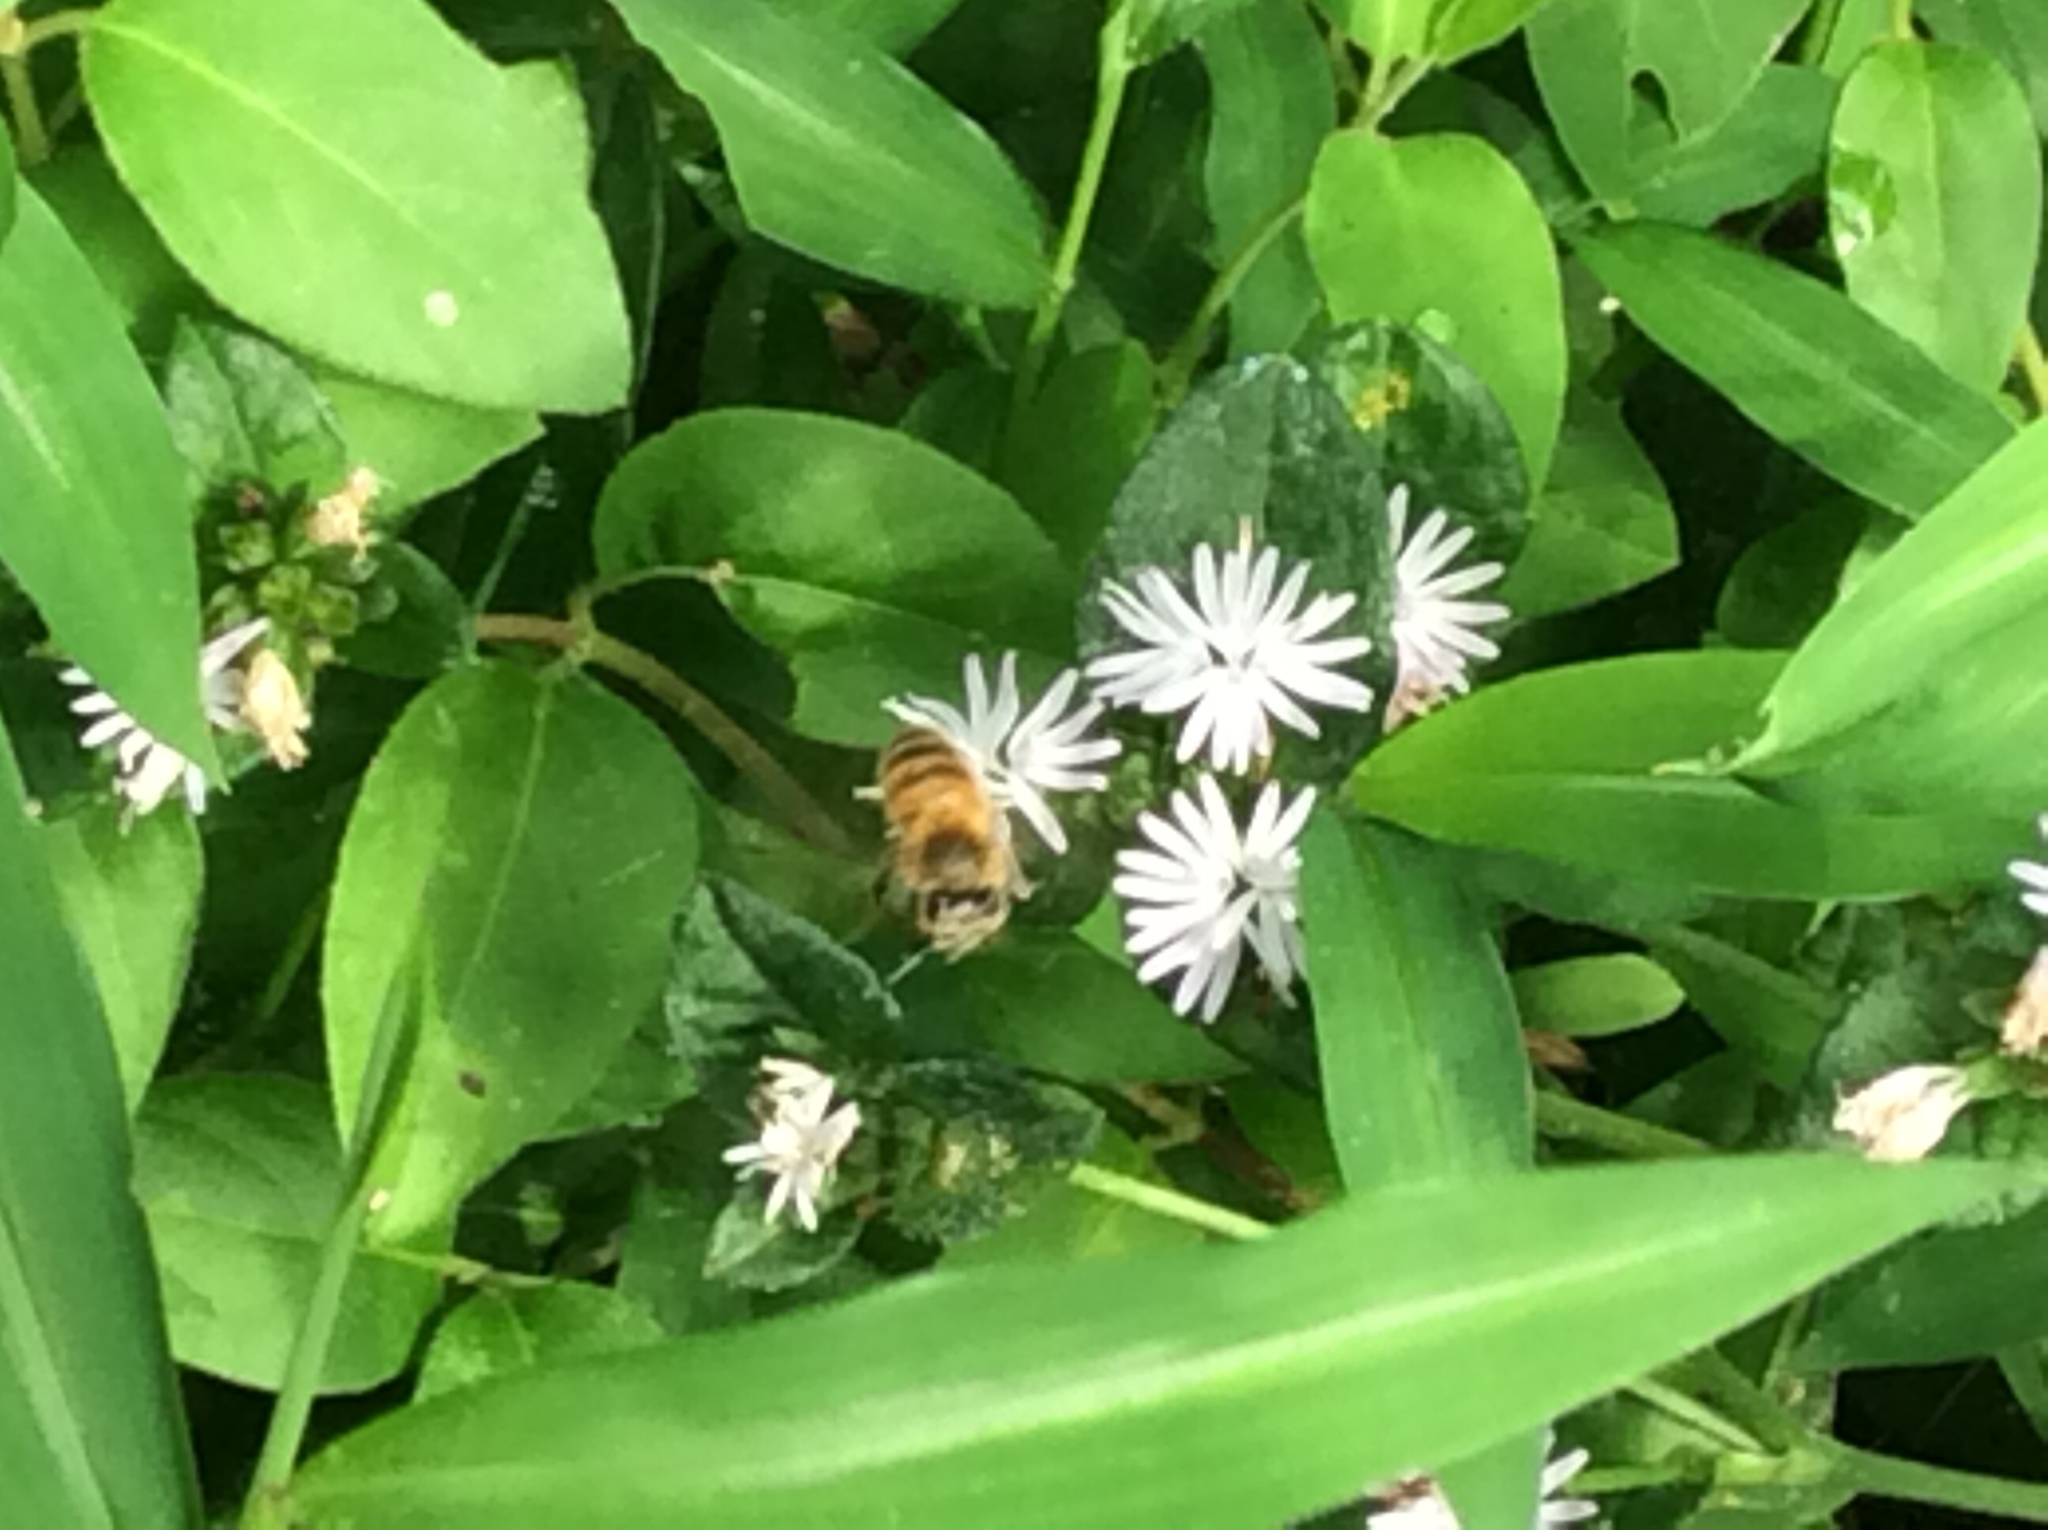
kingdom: Animalia
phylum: Arthropoda
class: Insecta
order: Hymenoptera
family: Apidae
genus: Apis
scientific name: Apis mellifera
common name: Honey bee
